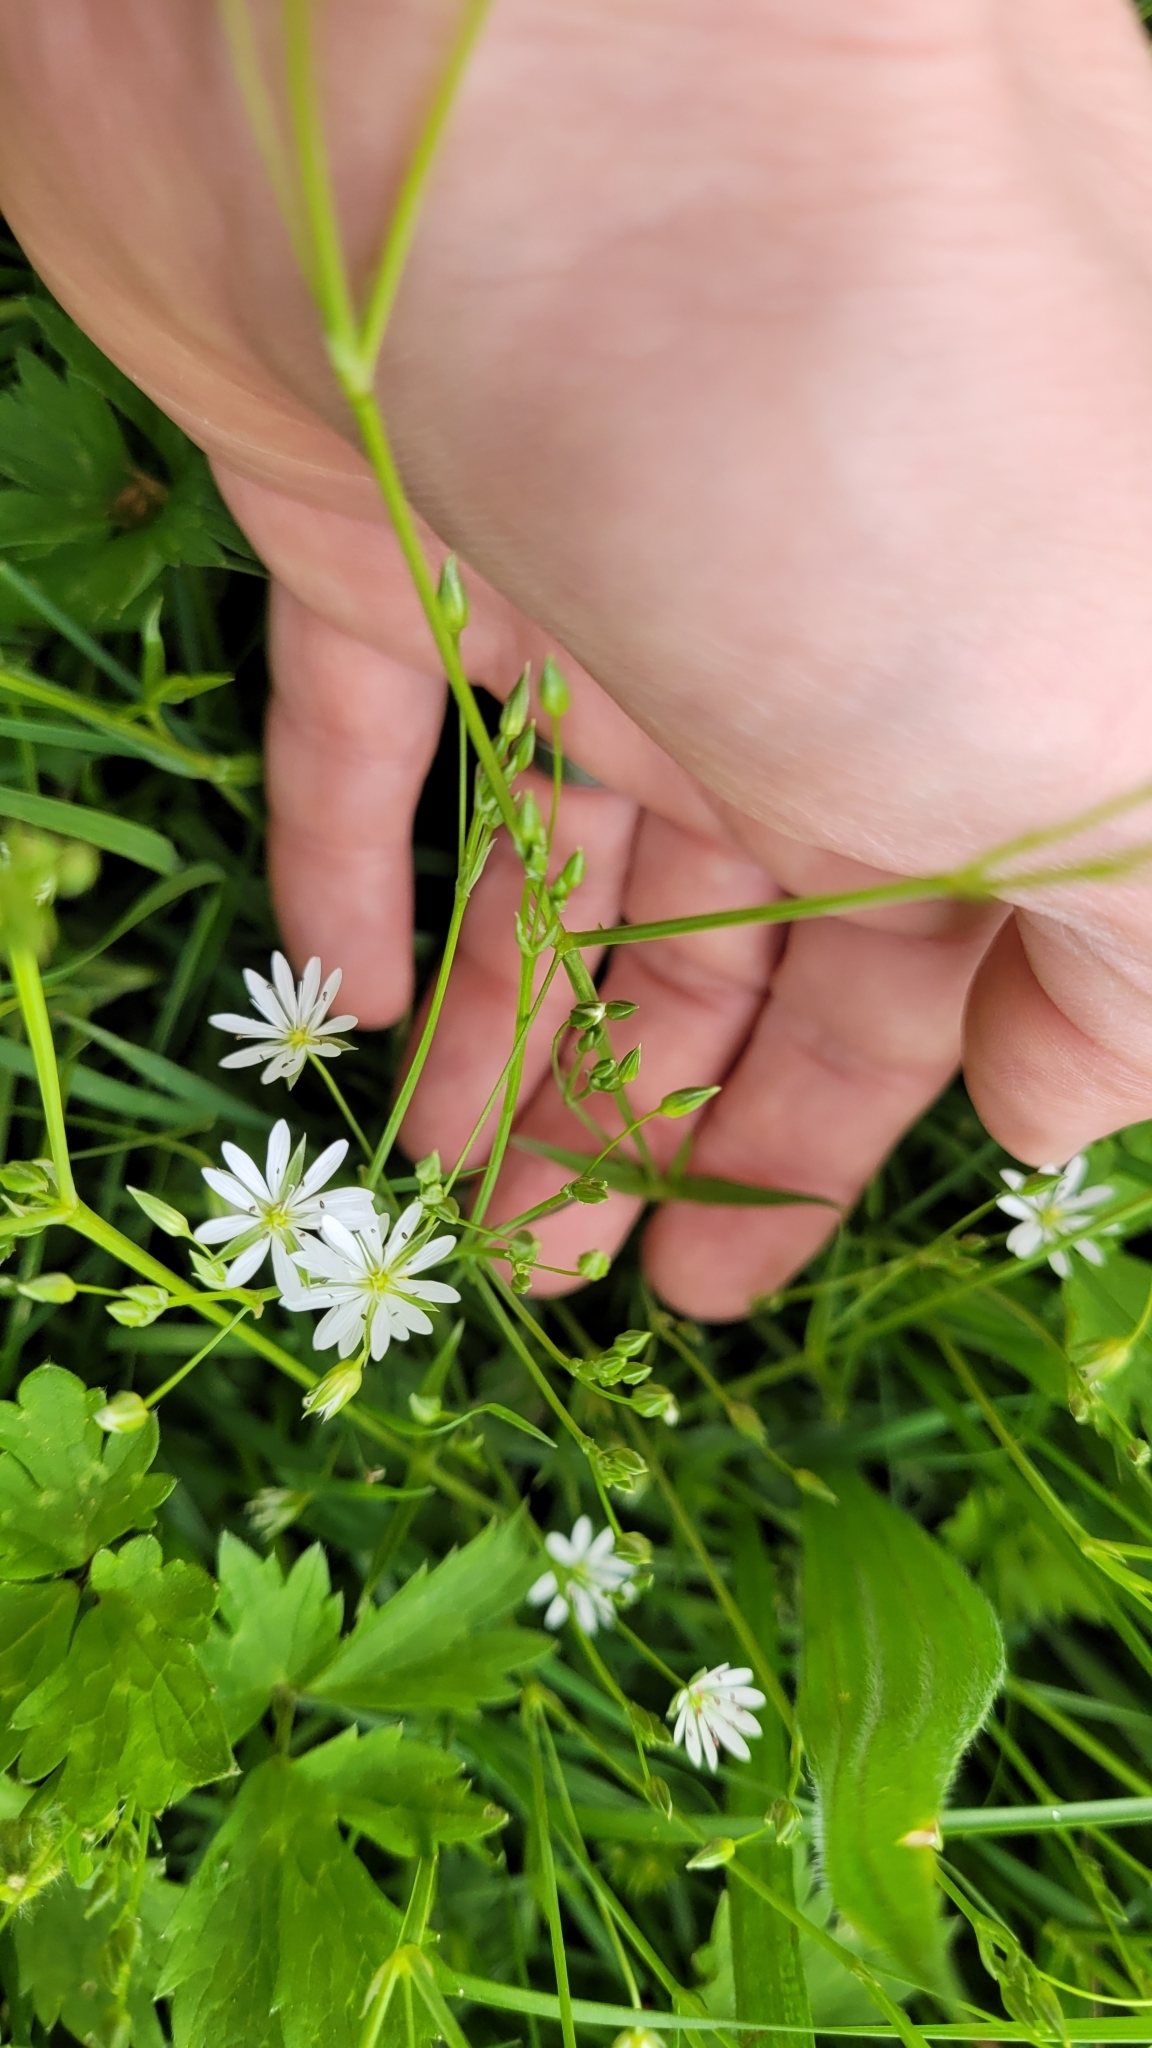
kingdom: Plantae
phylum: Tracheophyta
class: Magnoliopsida
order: Caryophyllales
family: Caryophyllaceae
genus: Stellaria
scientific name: Stellaria graminea
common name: Grass-like starwort
